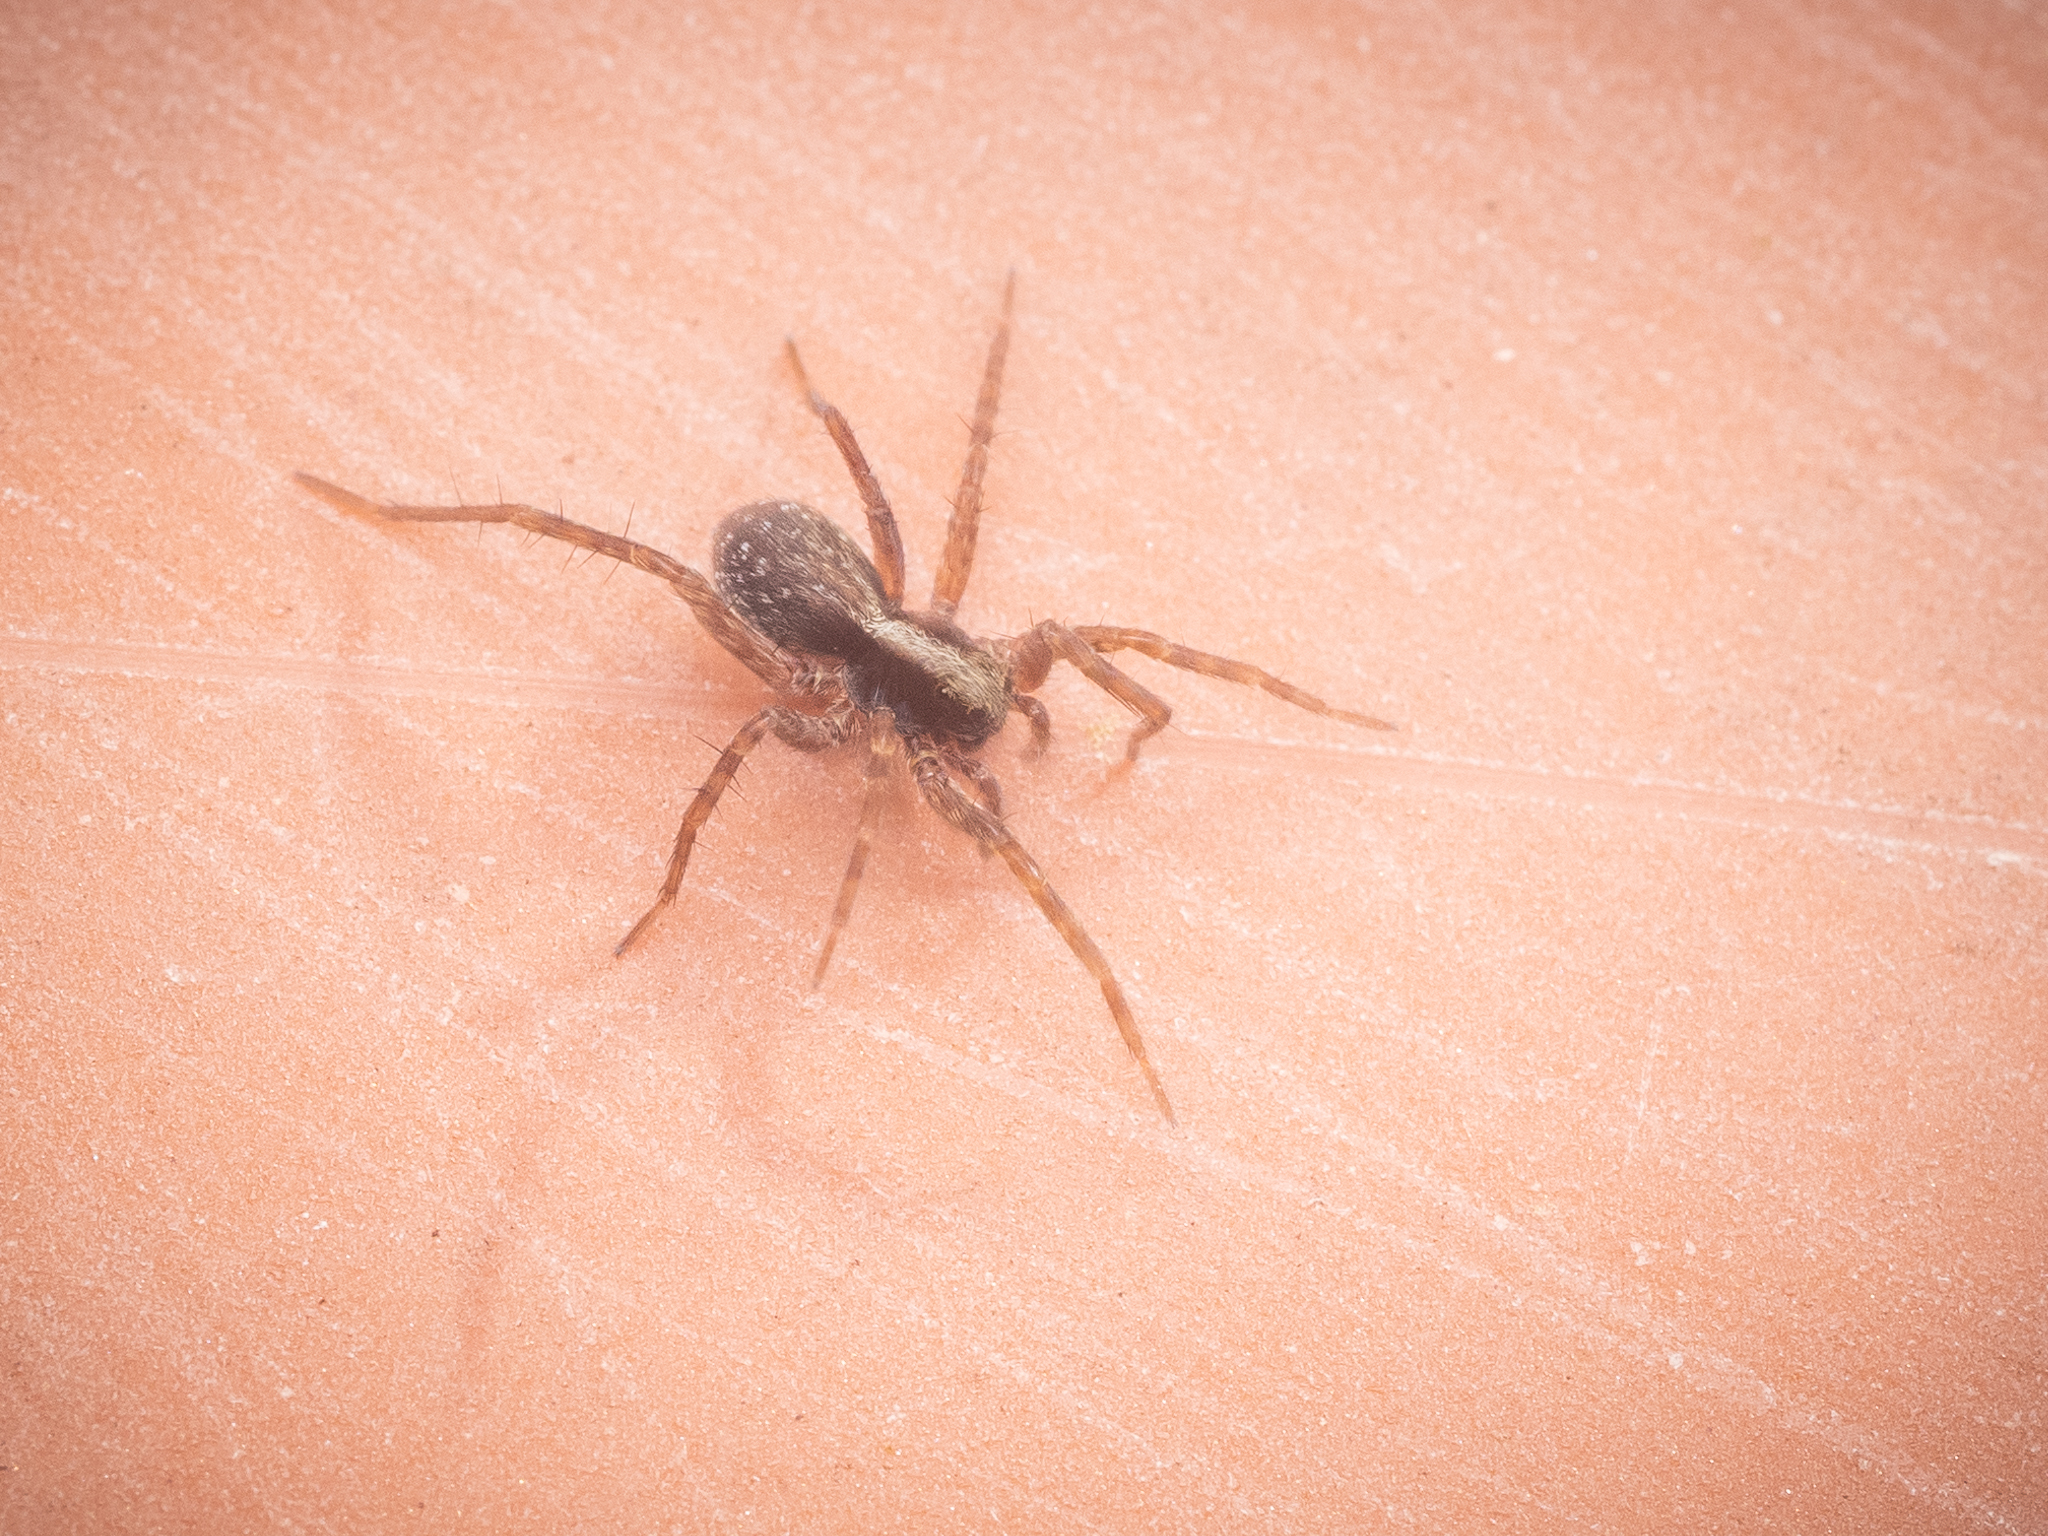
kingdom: Animalia
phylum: Arthropoda
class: Arachnida
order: Araneae
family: Lycosidae
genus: Pardosa
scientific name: Pardosa
